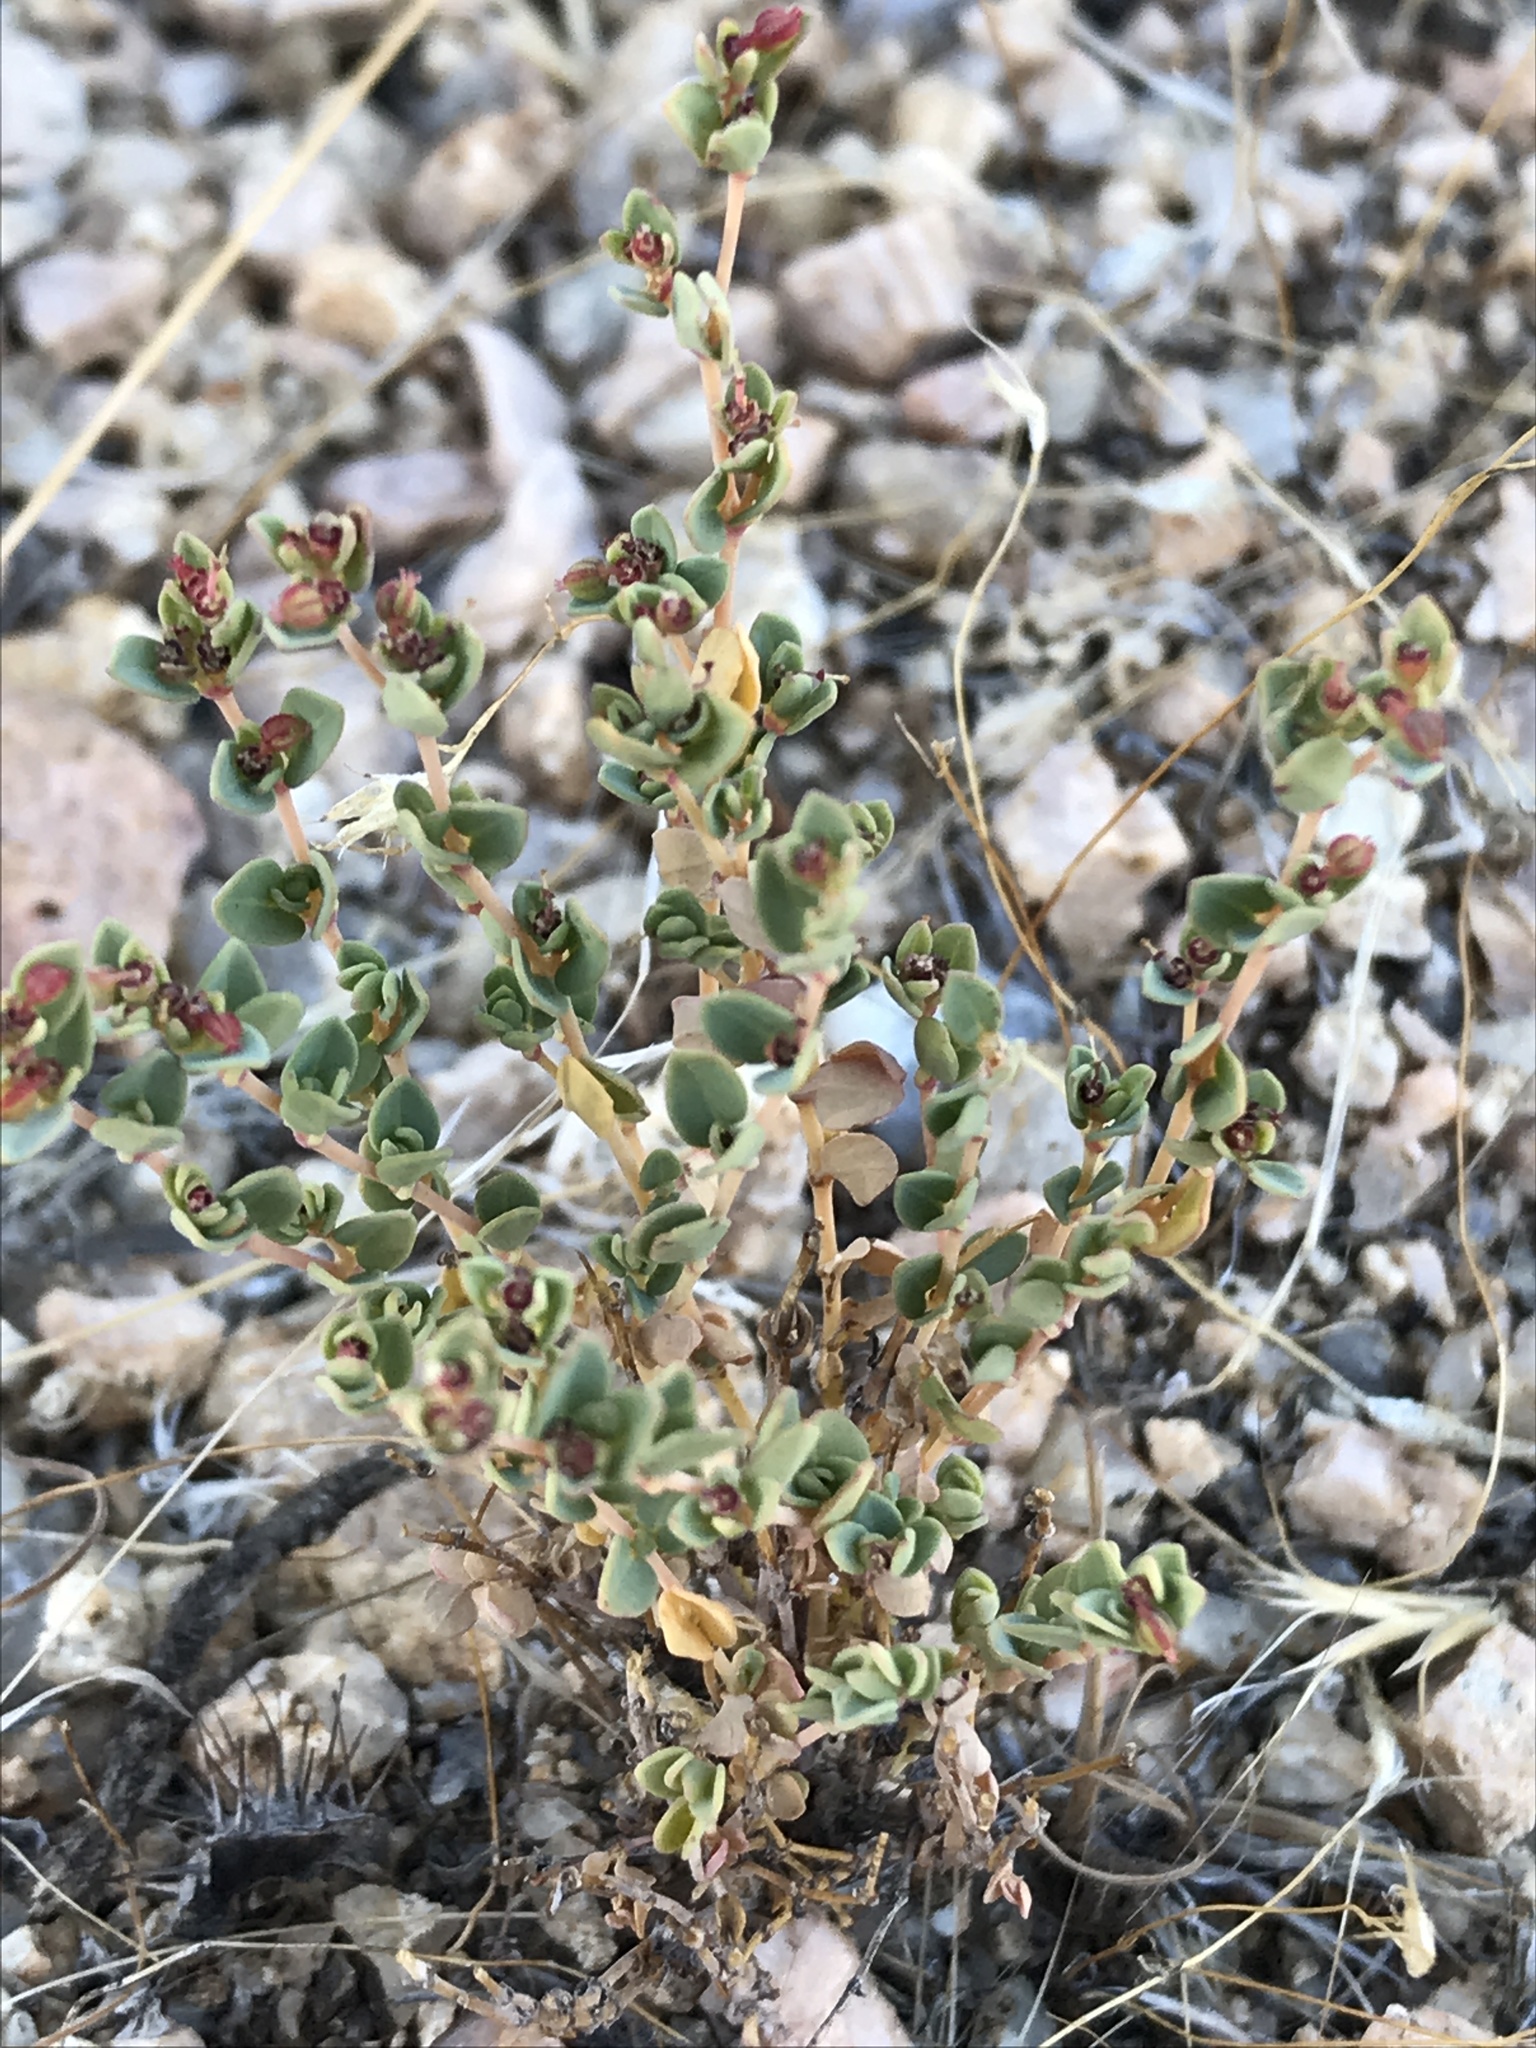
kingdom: Plantae
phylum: Tracheophyta
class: Magnoliopsida
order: Malpighiales
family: Euphorbiaceae
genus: Euphorbia
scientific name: Euphorbia polycarpa
